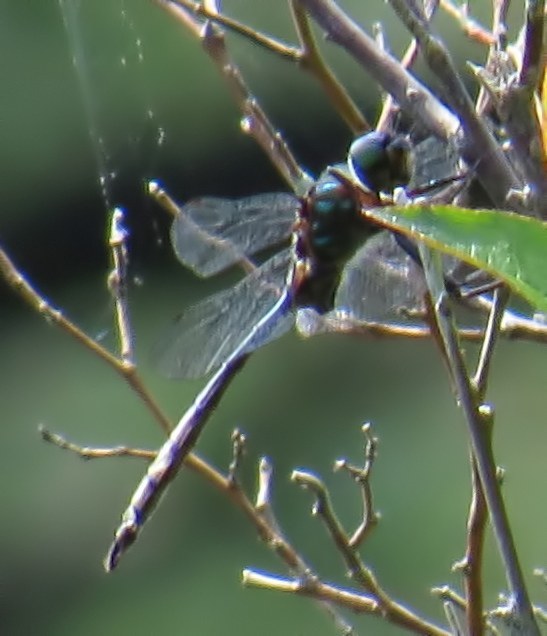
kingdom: Animalia
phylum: Arthropoda
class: Insecta
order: Odonata
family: Corduliidae
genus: Somatochlora
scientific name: Somatochlora williamsoni
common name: Williamson's emerald
